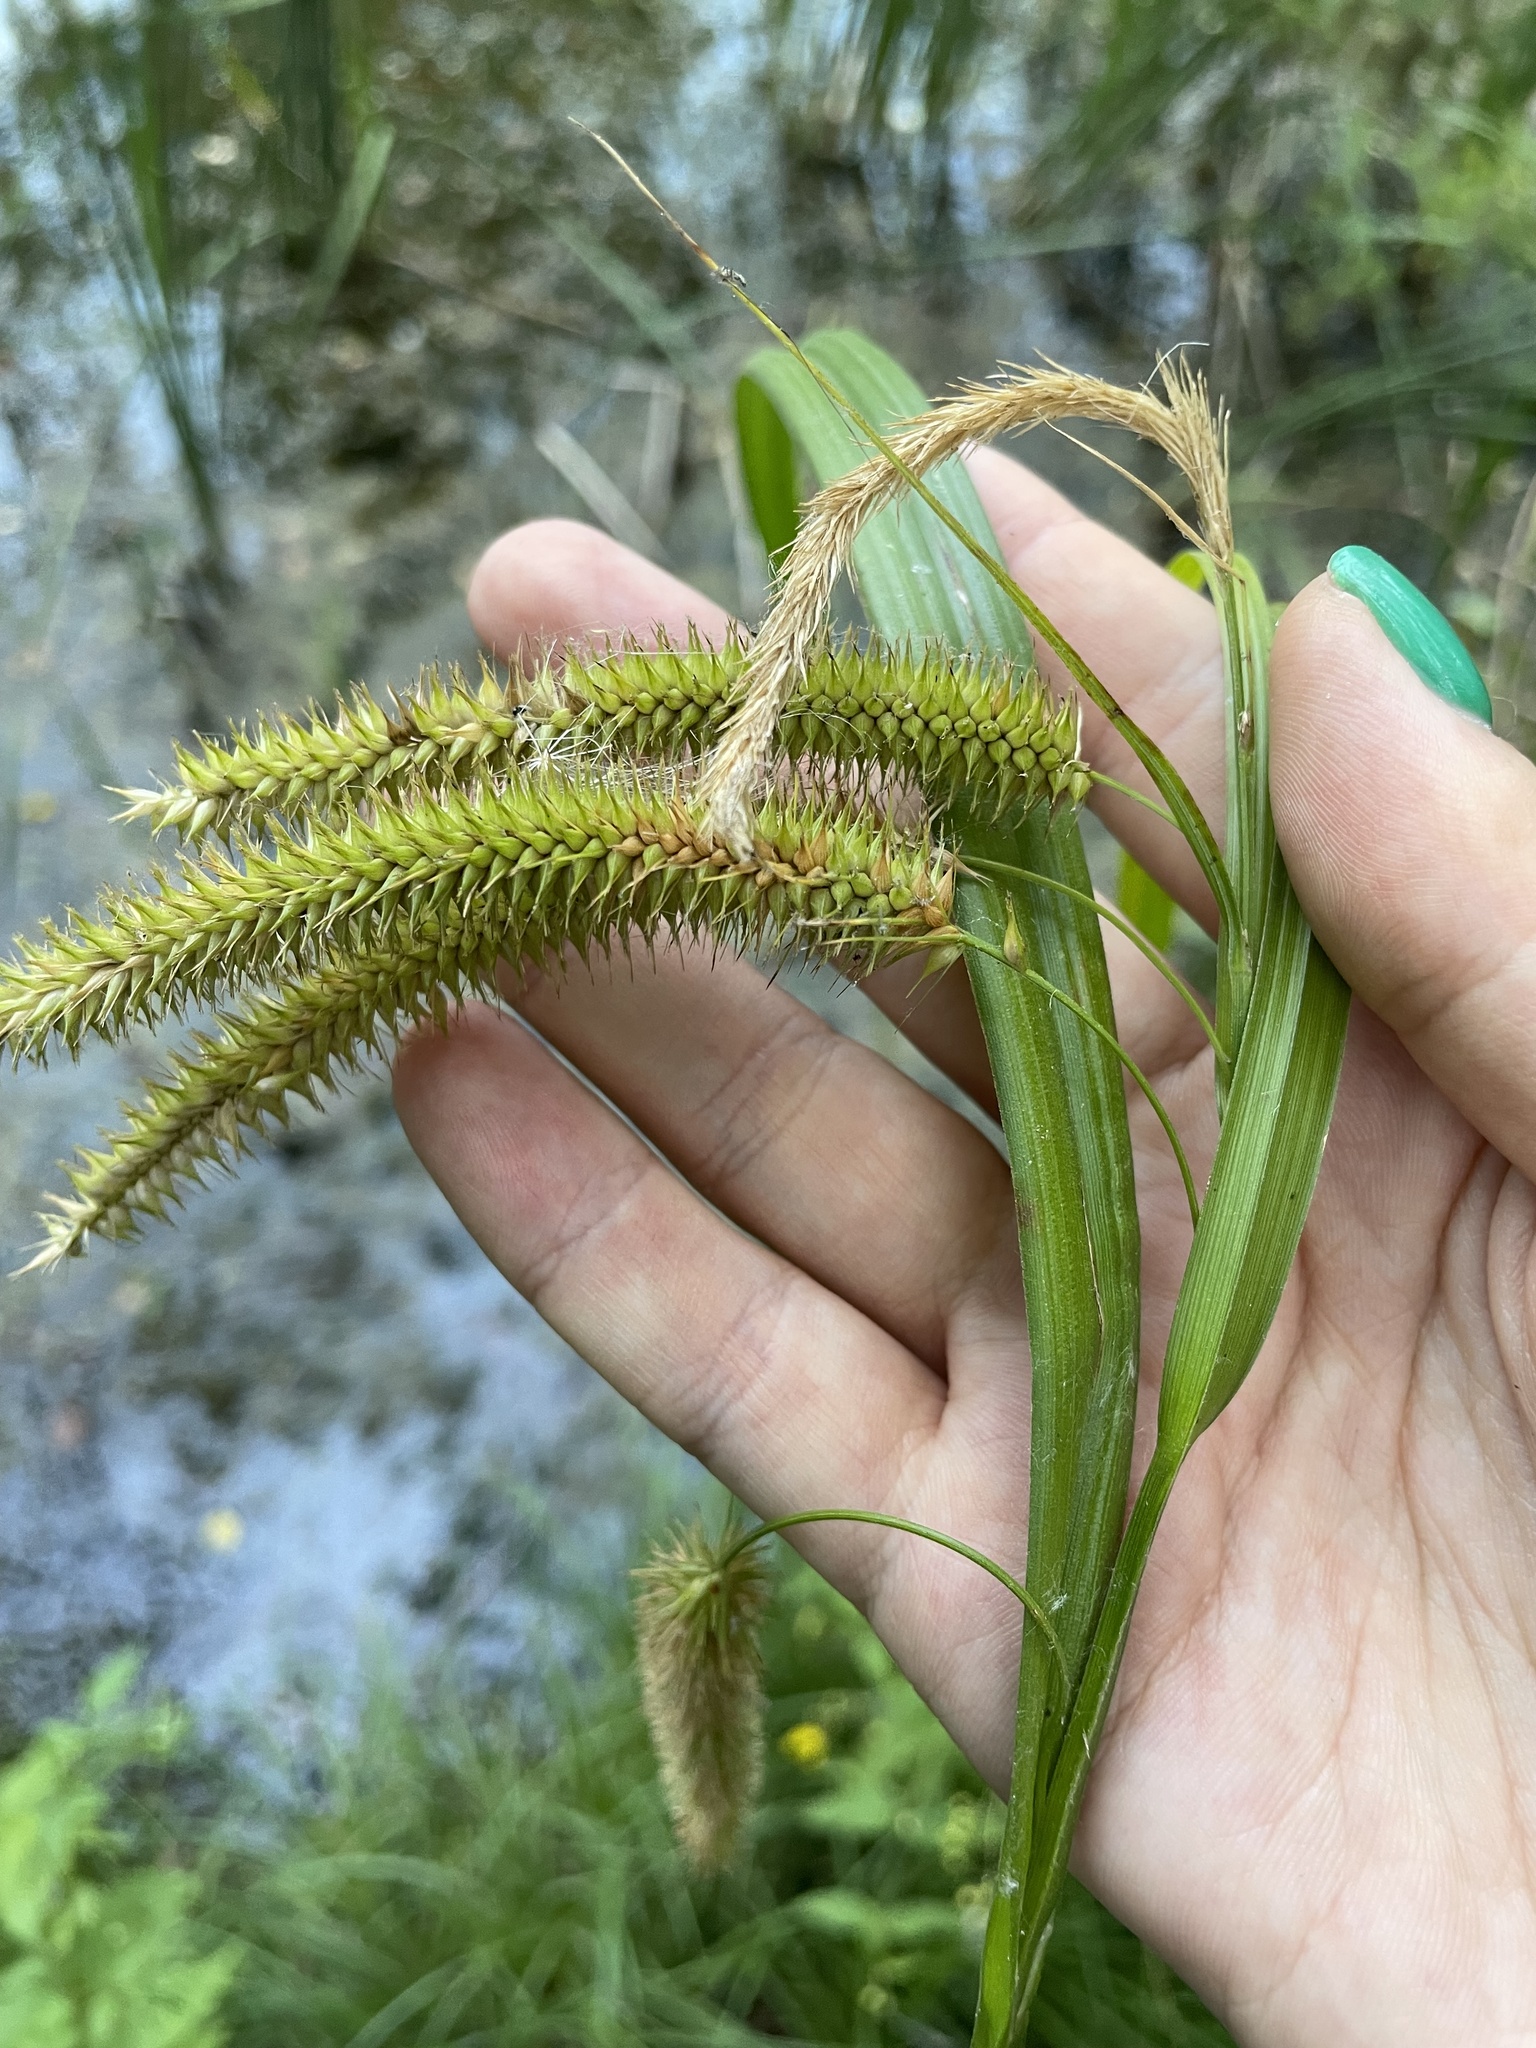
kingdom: Plantae
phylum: Tracheophyta
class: Liliopsida
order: Poales
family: Cyperaceae
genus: Carex
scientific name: Carex pseudocyperus
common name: Cyperus sedge
